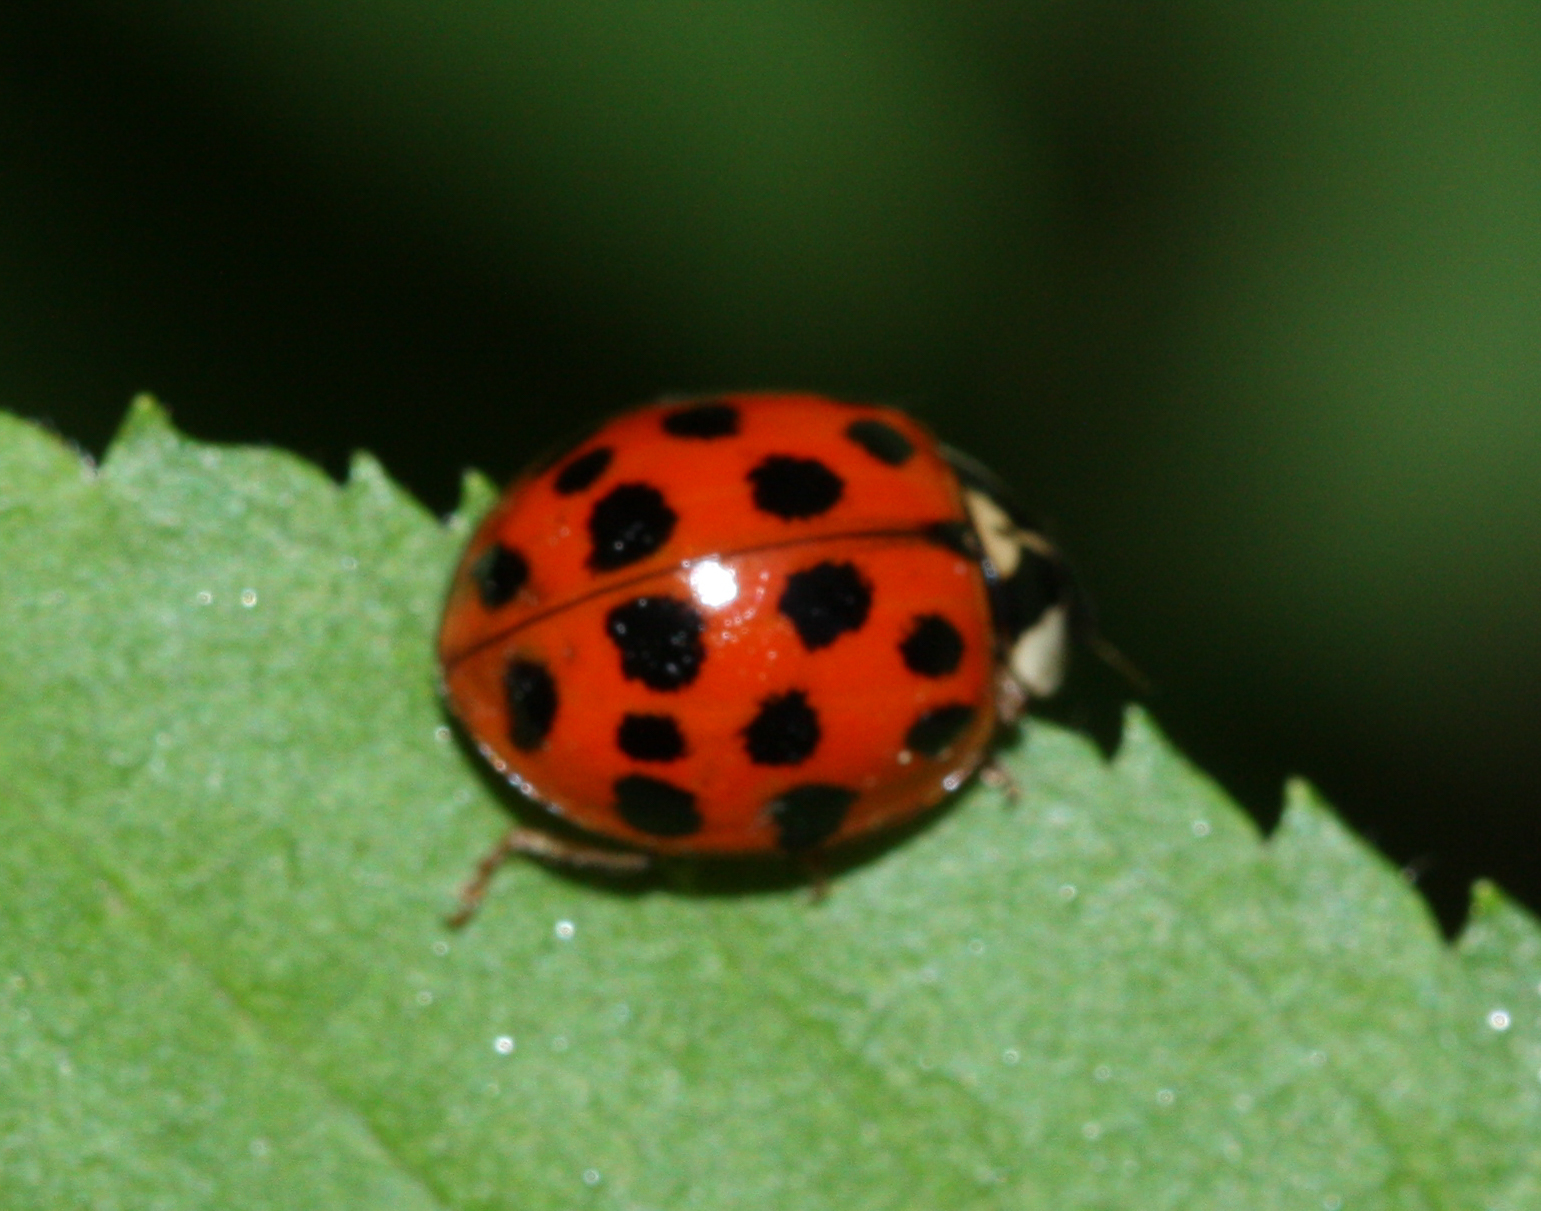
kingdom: Animalia
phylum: Arthropoda
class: Insecta
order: Coleoptera
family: Coccinellidae
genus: Harmonia
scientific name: Harmonia axyridis
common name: Harlequin ladybird
